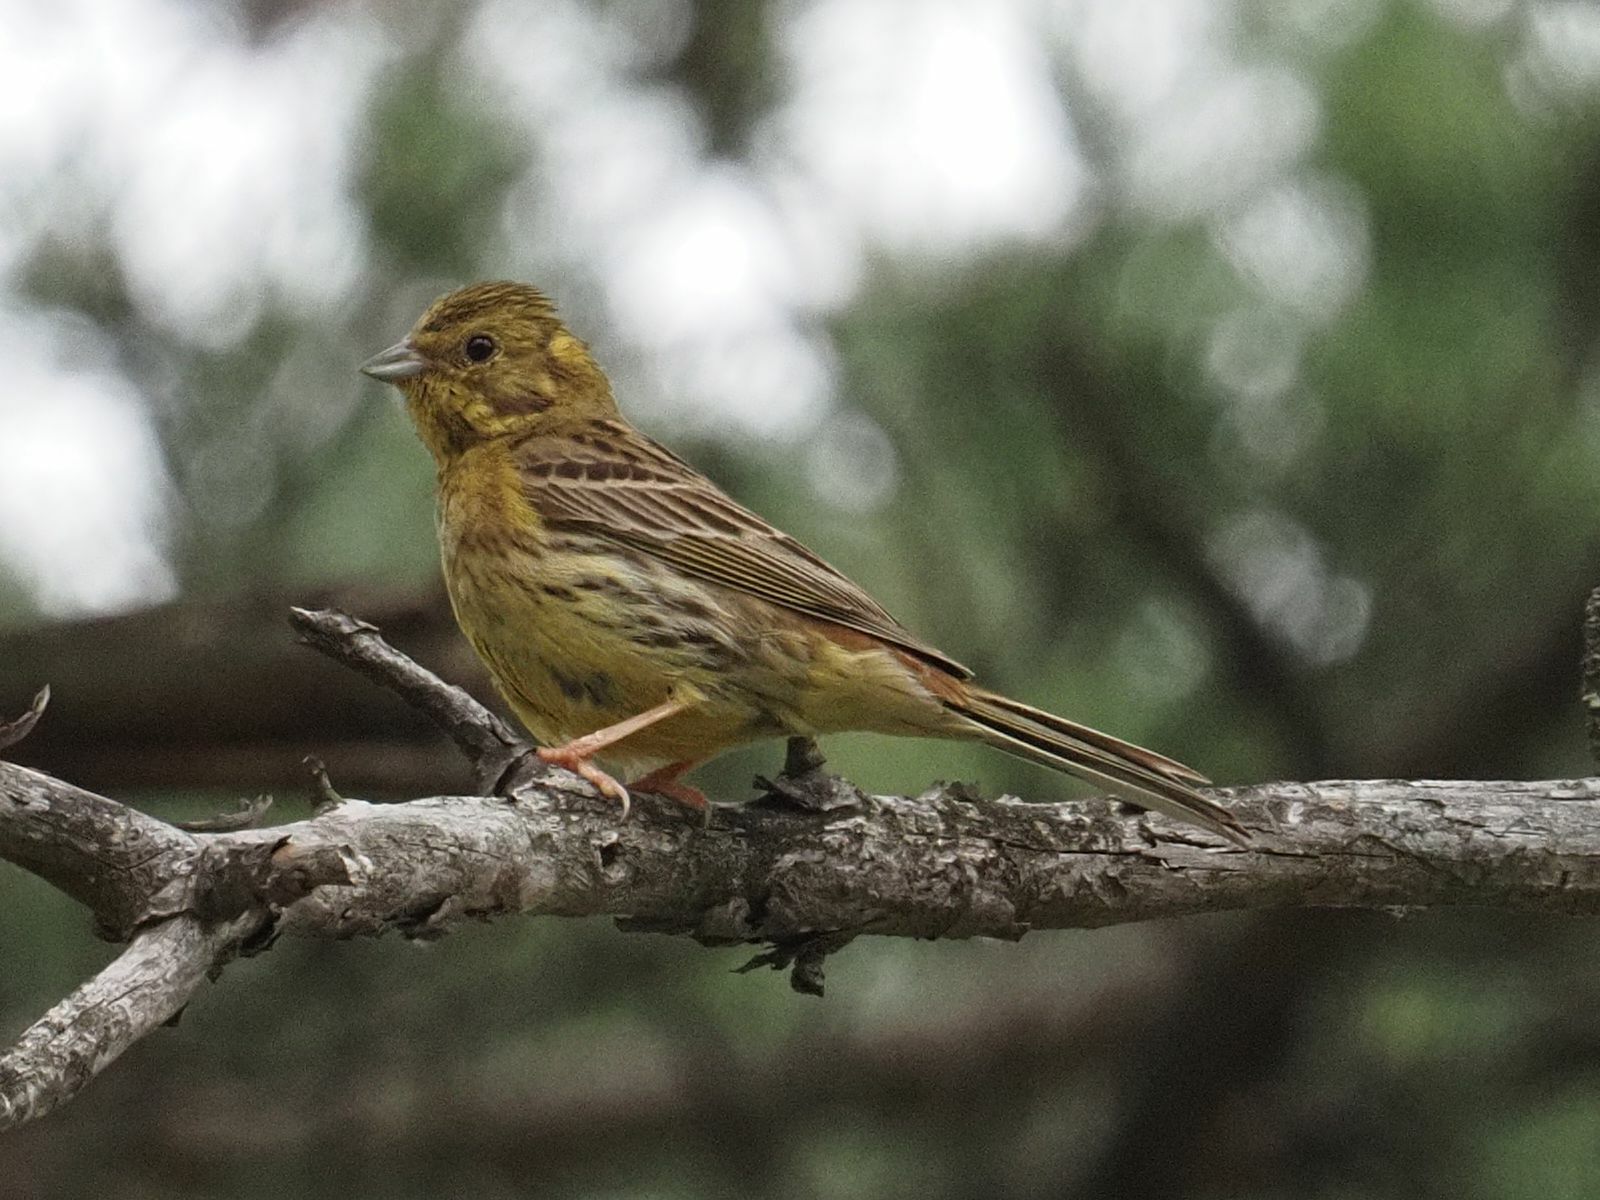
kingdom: Animalia
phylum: Chordata
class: Aves
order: Passeriformes
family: Emberizidae
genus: Emberiza
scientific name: Emberiza citrinella
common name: Yellowhammer
